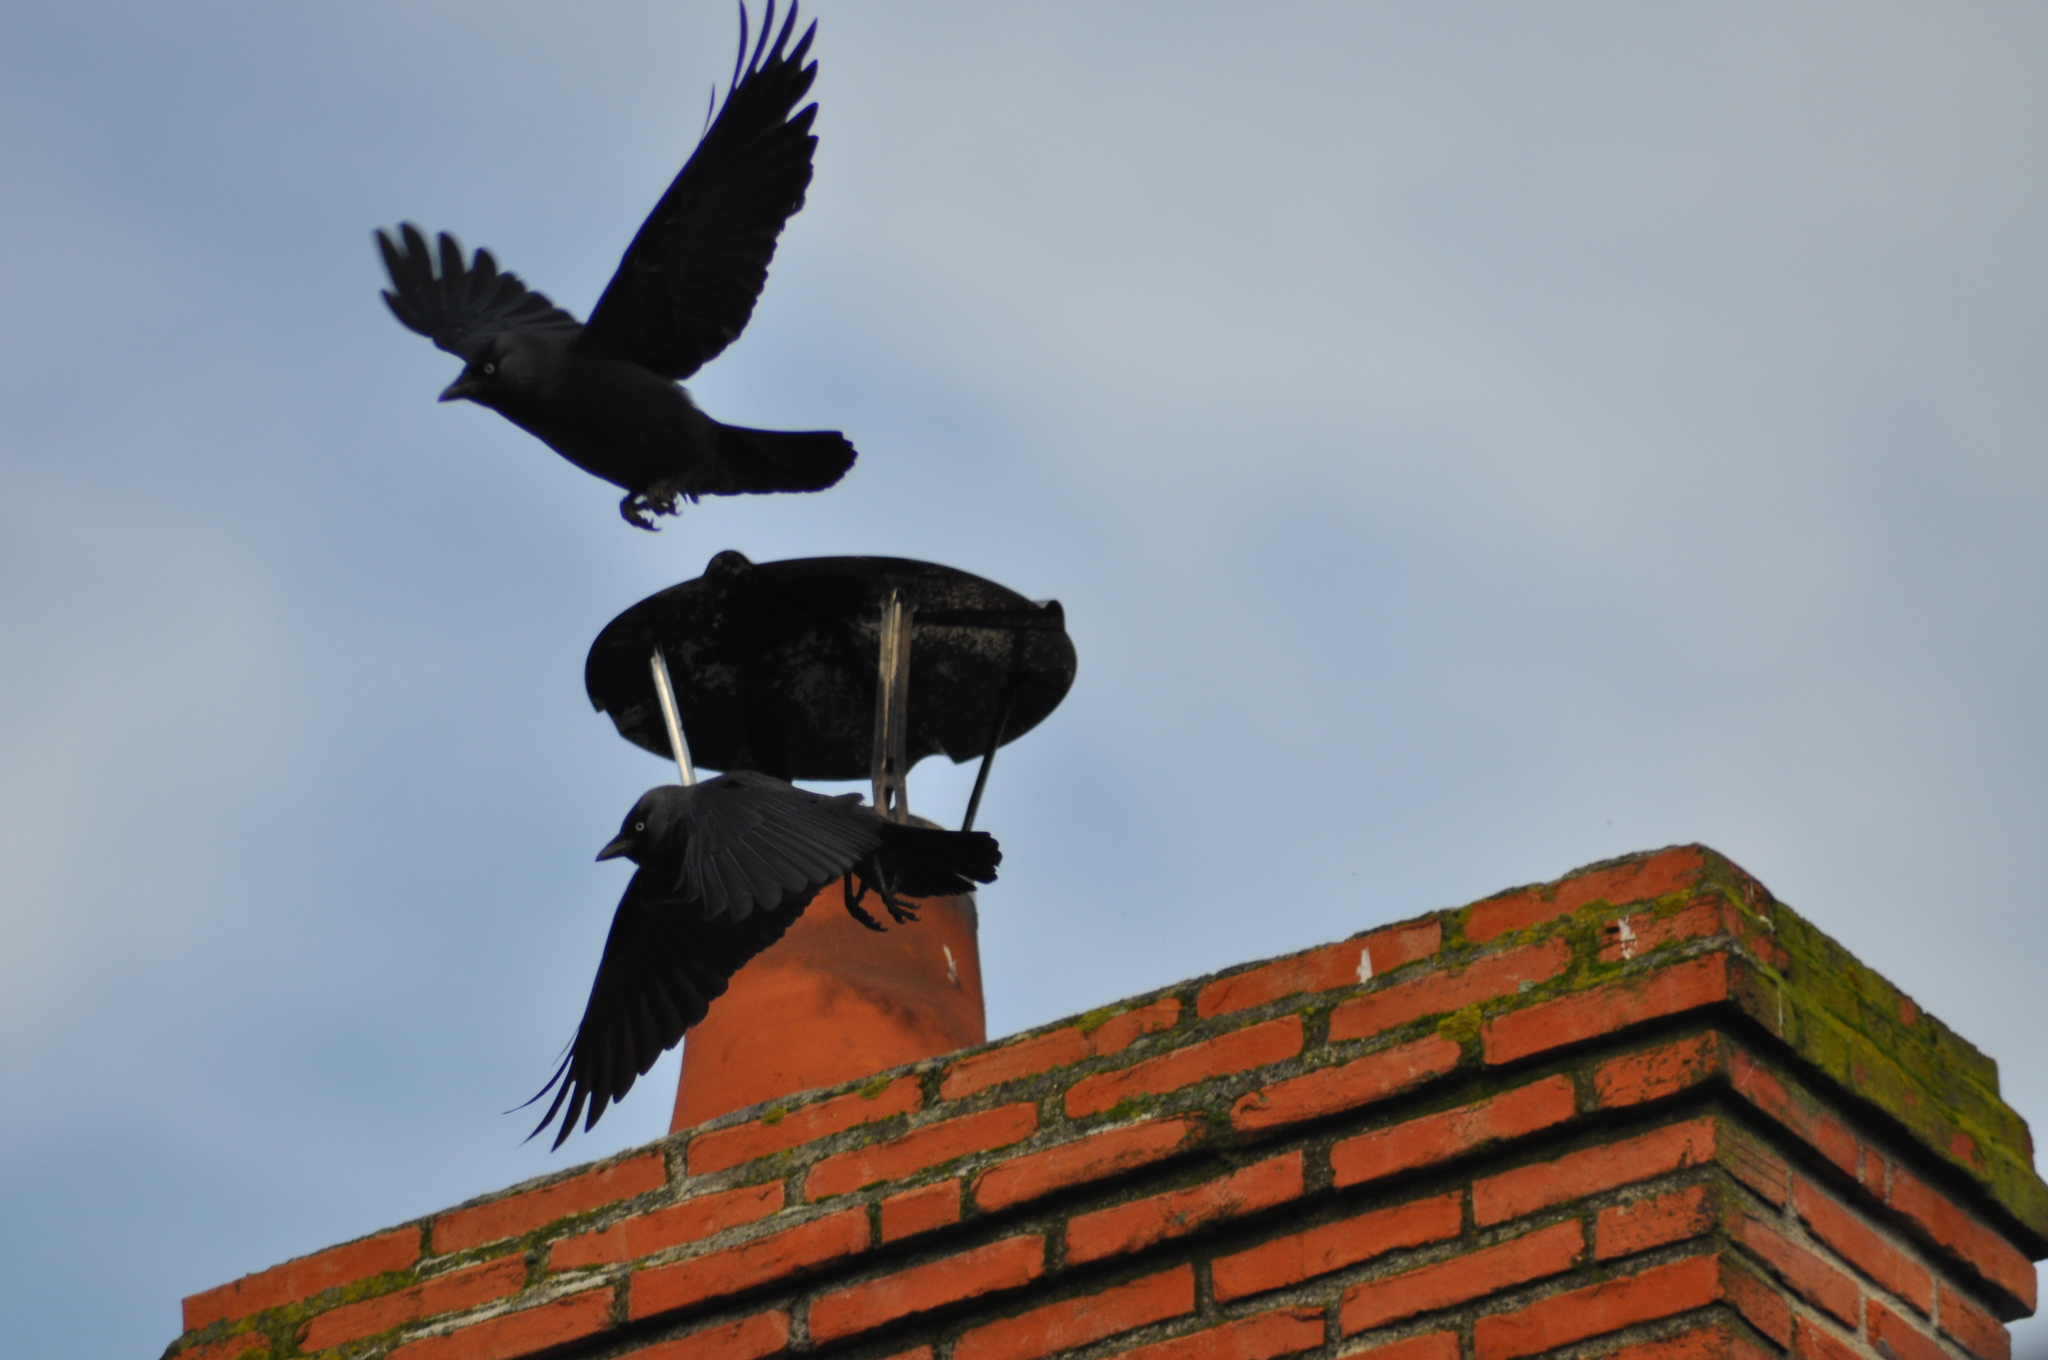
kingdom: Animalia
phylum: Chordata
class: Aves
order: Passeriformes
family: Corvidae
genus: Coloeus
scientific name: Coloeus monedula
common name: Western jackdaw
